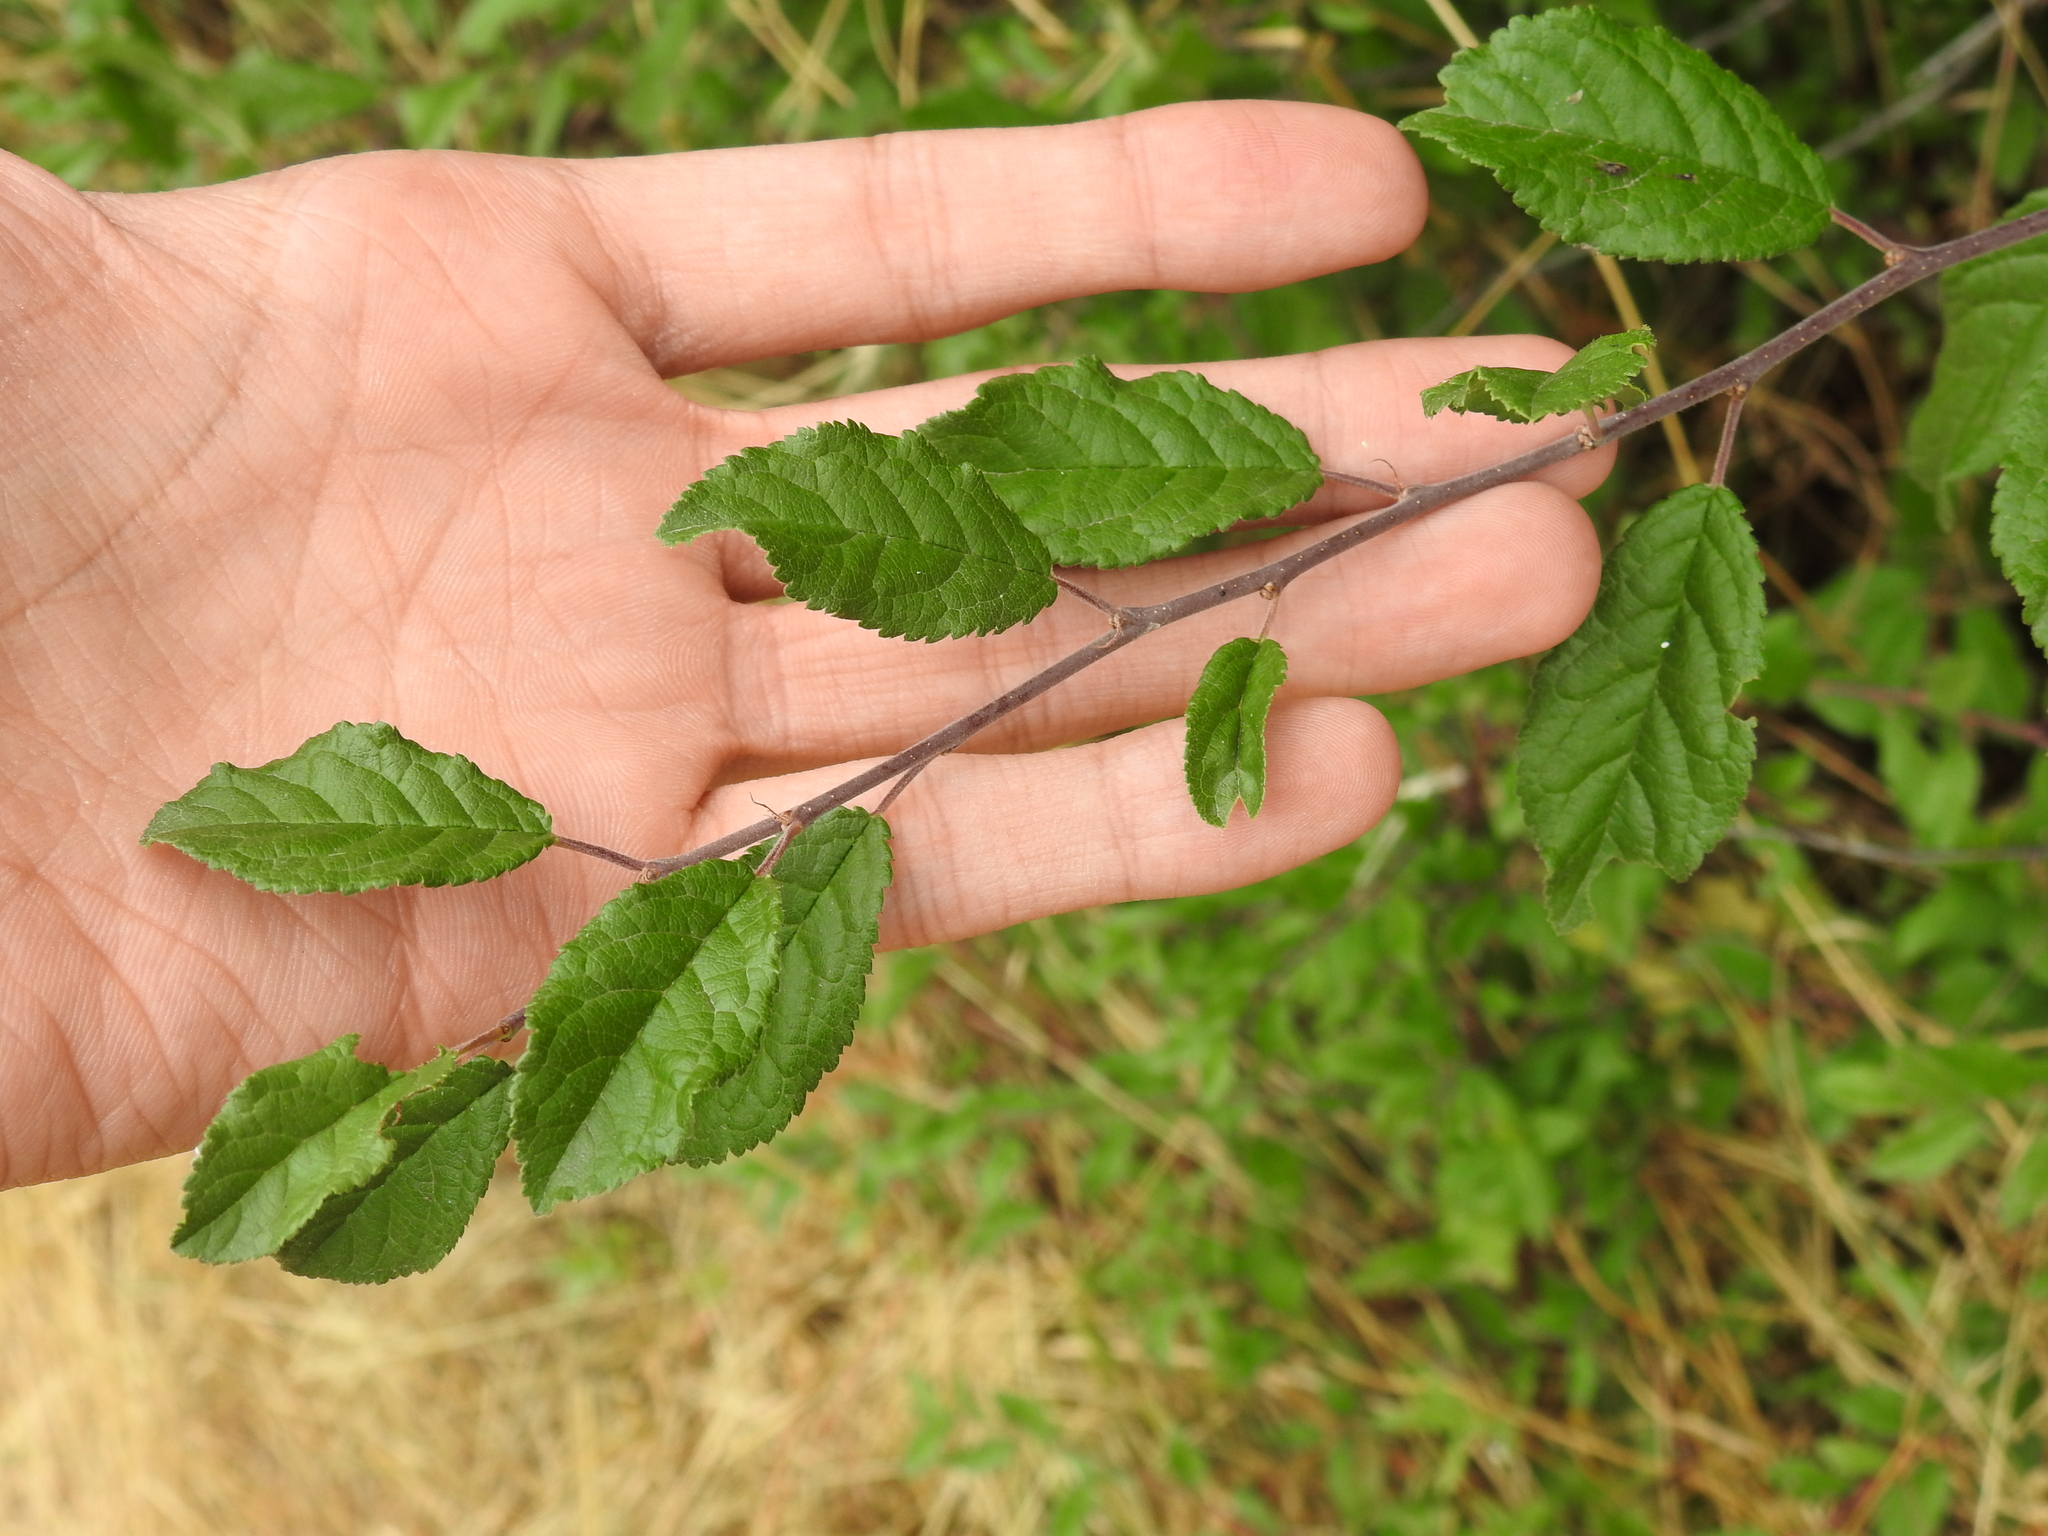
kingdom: Plantae
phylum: Tracheophyta
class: Magnoliopsida
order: Caryophyllales
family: Caryophyllaceae
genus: Saponaria
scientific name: Saponaria officinalis
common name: Soapwort
